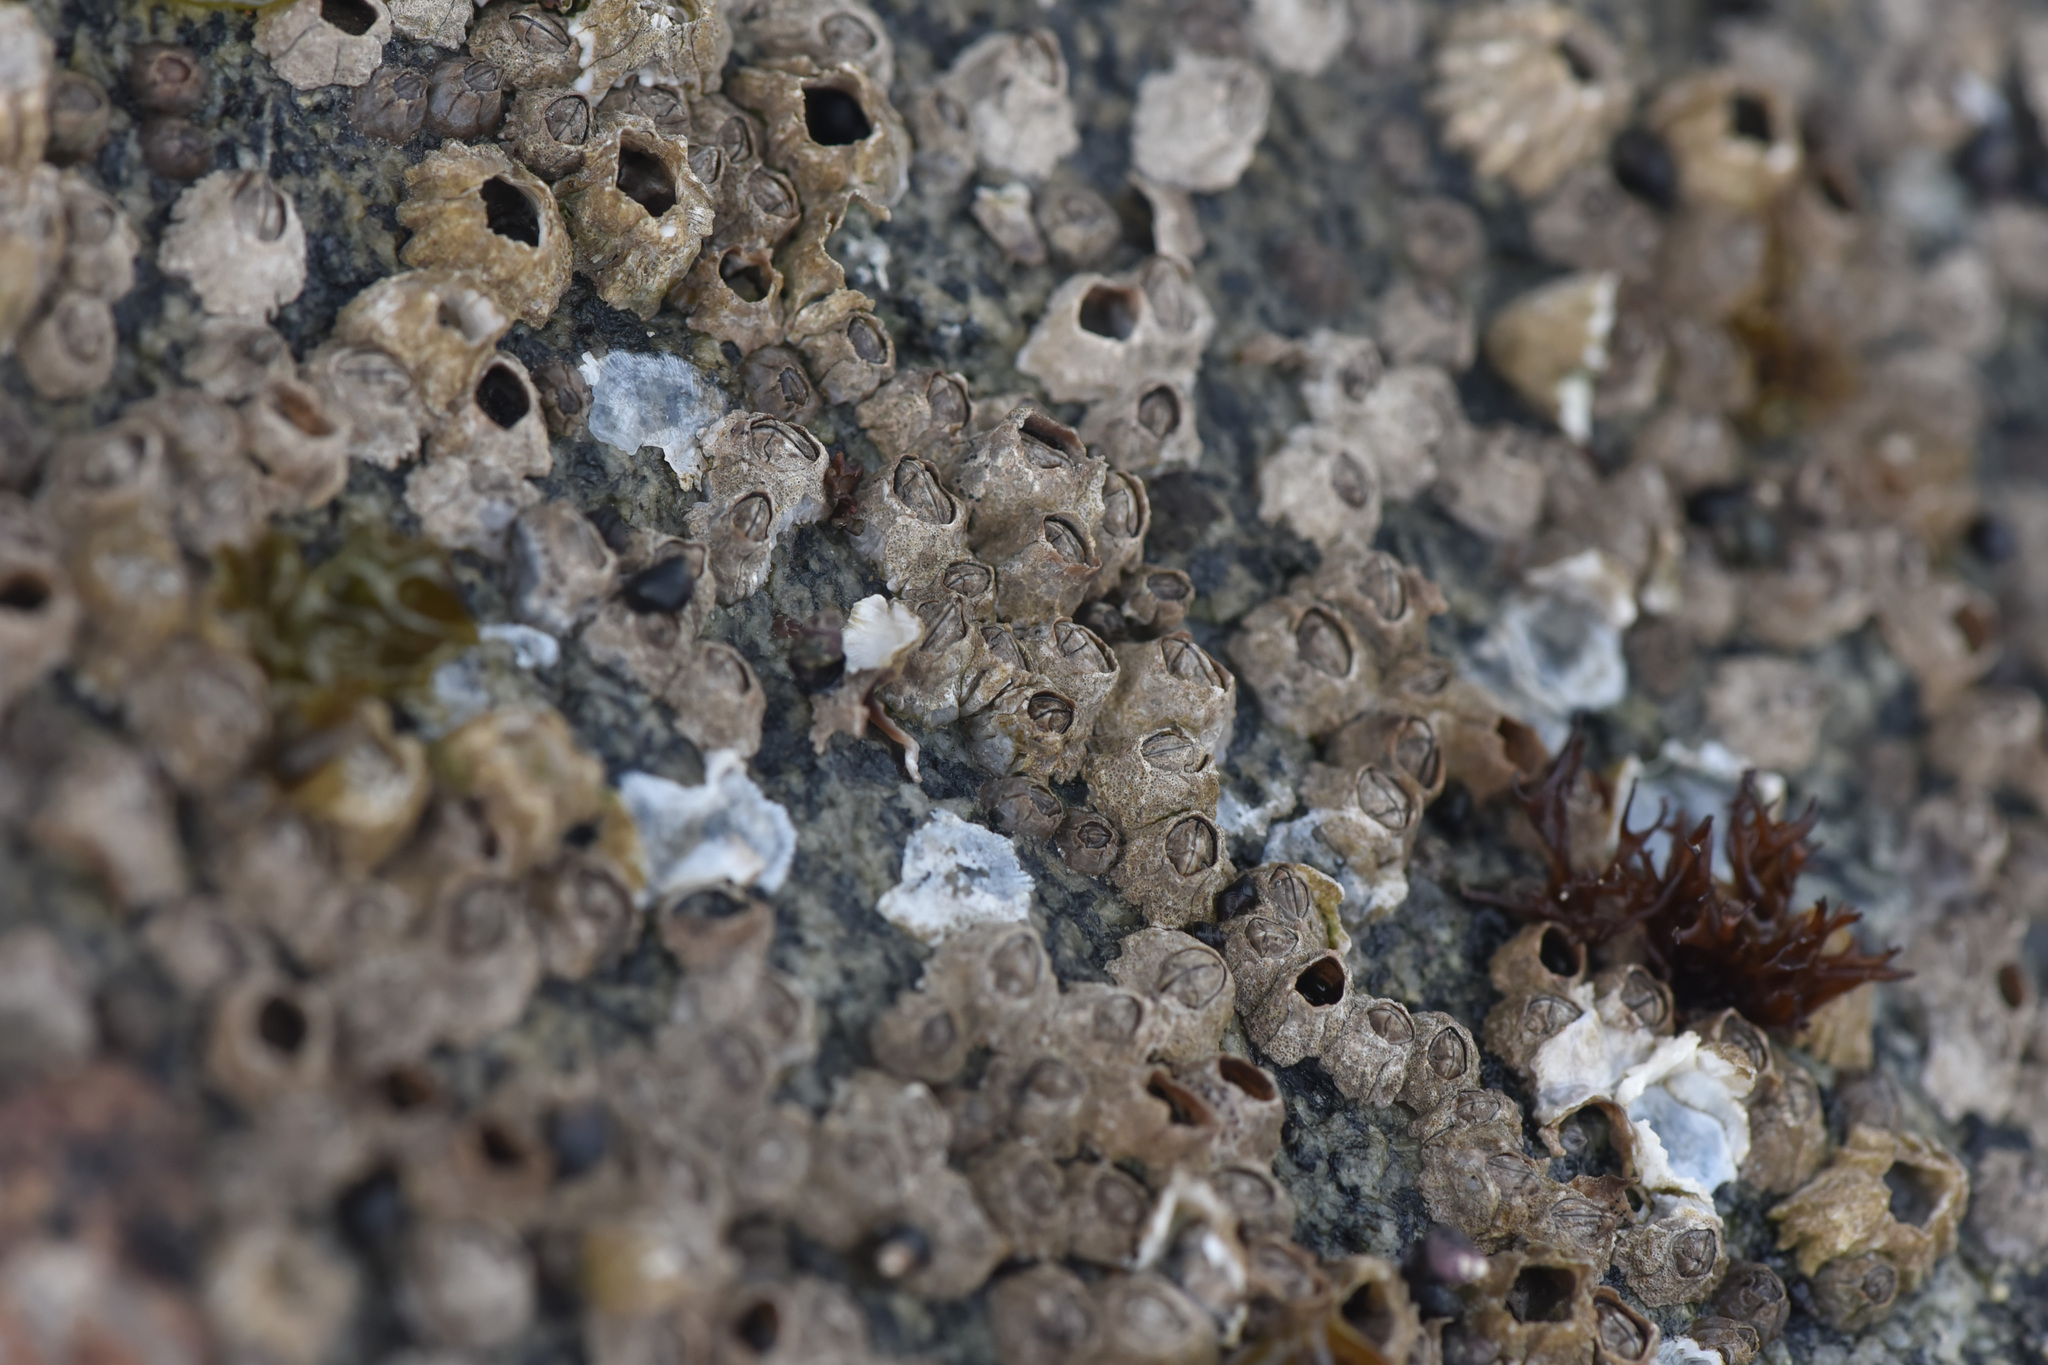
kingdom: Animalia
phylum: Arthropoda
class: Maxillopoda
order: Sessilia
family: Chthamalidae
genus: Chthamalus
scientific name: Chthamalus dalli
